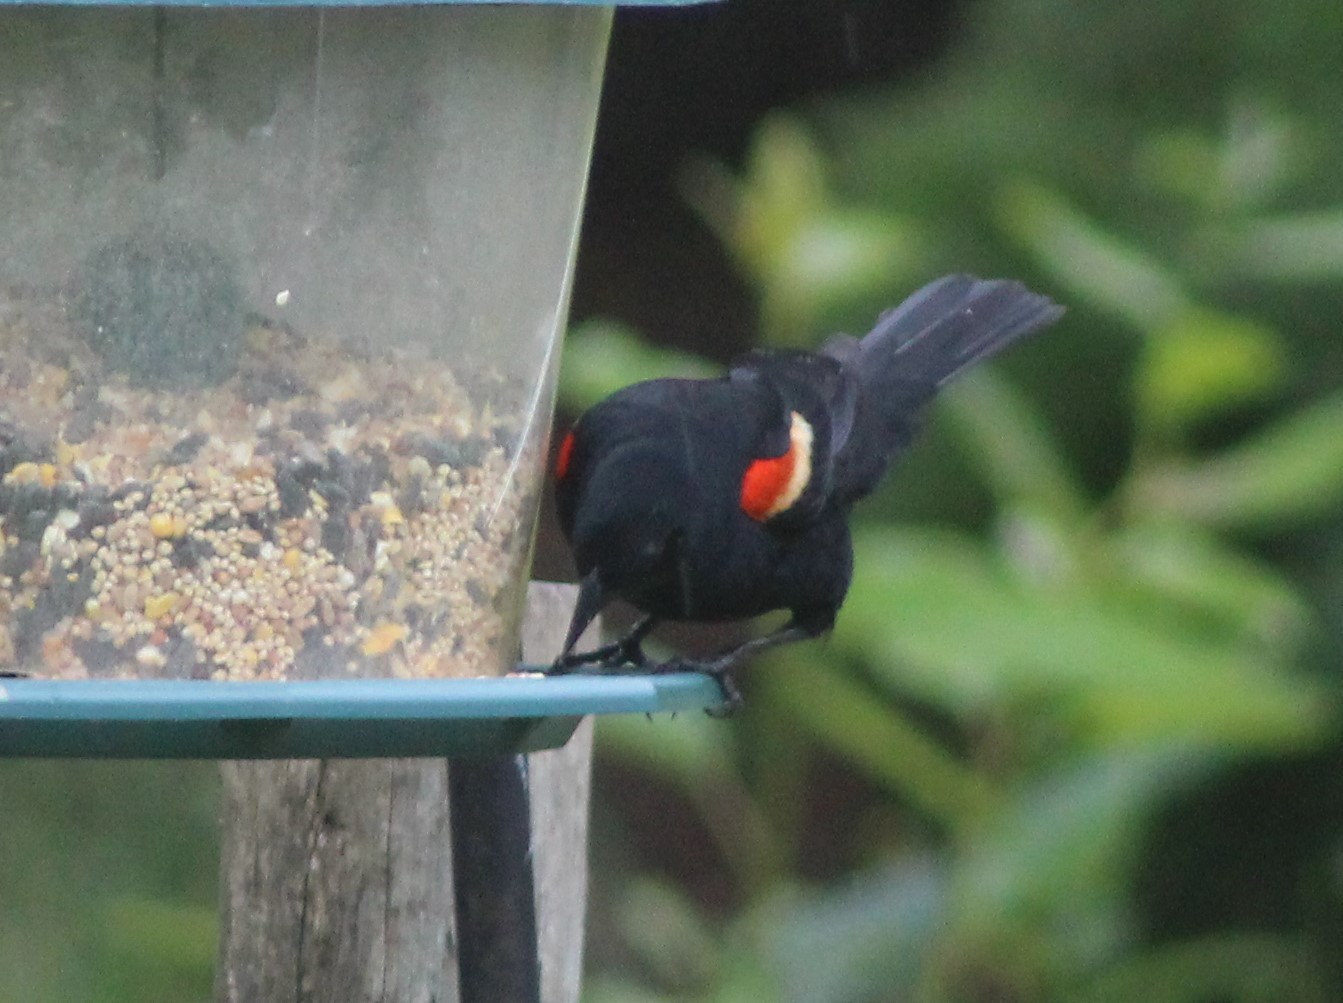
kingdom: Animalia
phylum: Chordata
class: Aves
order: Passeriformes
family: Icteridae
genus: Agelaius
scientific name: Agelaius phoeniceus
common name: Red-winged blackbird
